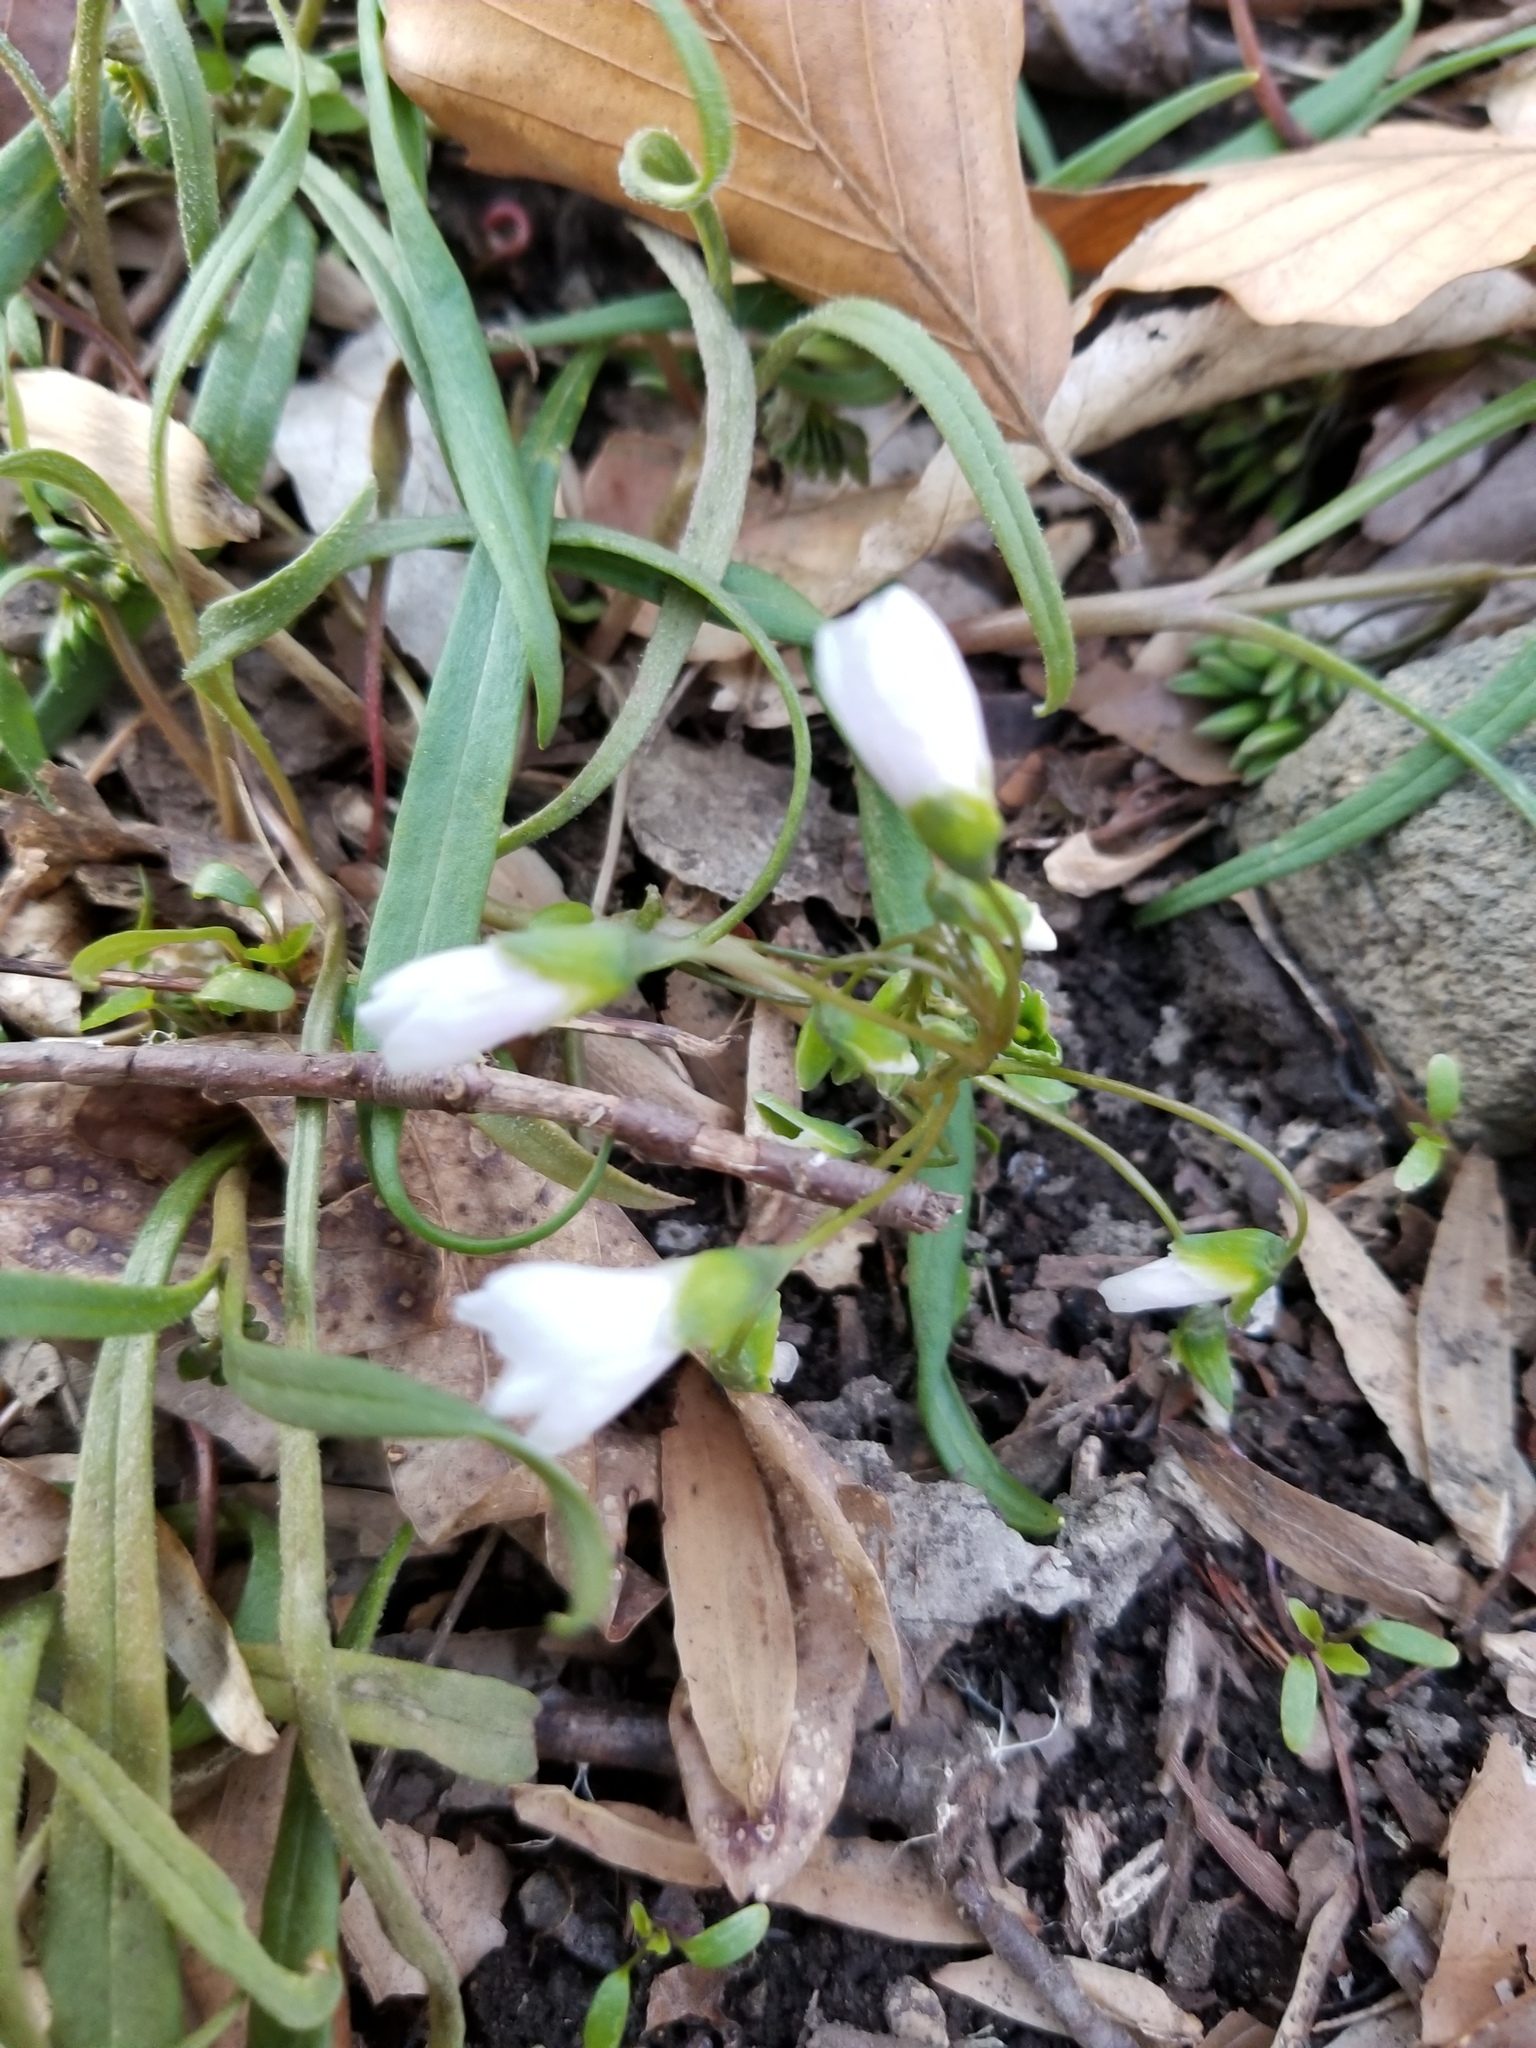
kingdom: Plantae
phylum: Tracheophyta
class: Magnoliopsida
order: Caryophyllales
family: Montiaceae
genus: Claytonia
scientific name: Claytonia virginica
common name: Virginia springbeauty
